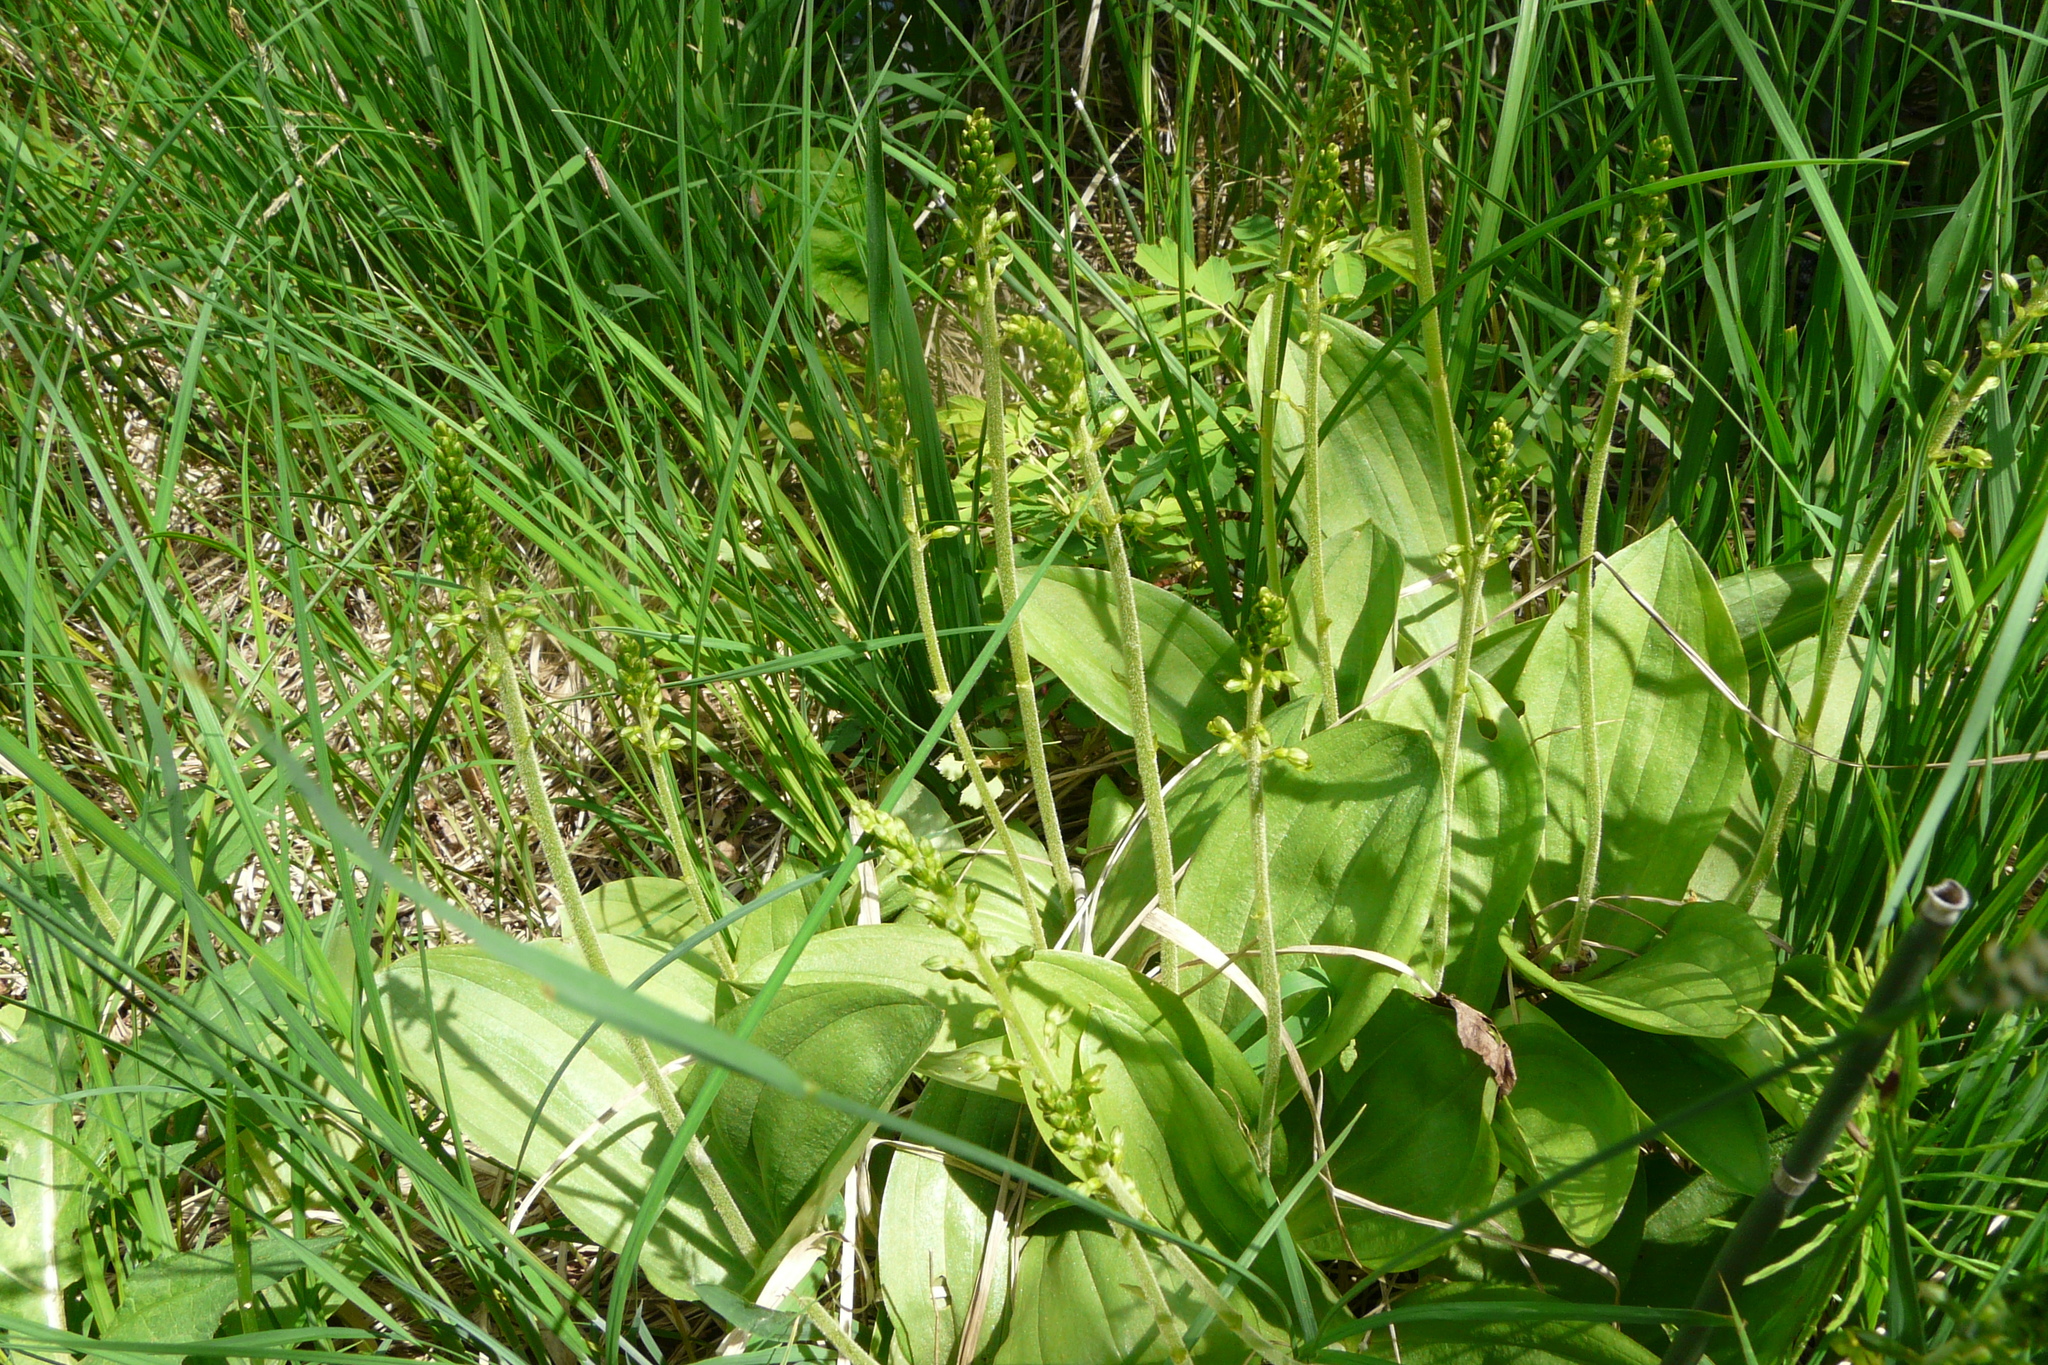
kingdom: Plantae
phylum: Tracheophyta
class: Liliopsida
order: Asparagales
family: Orchidaceae
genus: Neottia
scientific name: Neottia ovata
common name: Common twayblade
